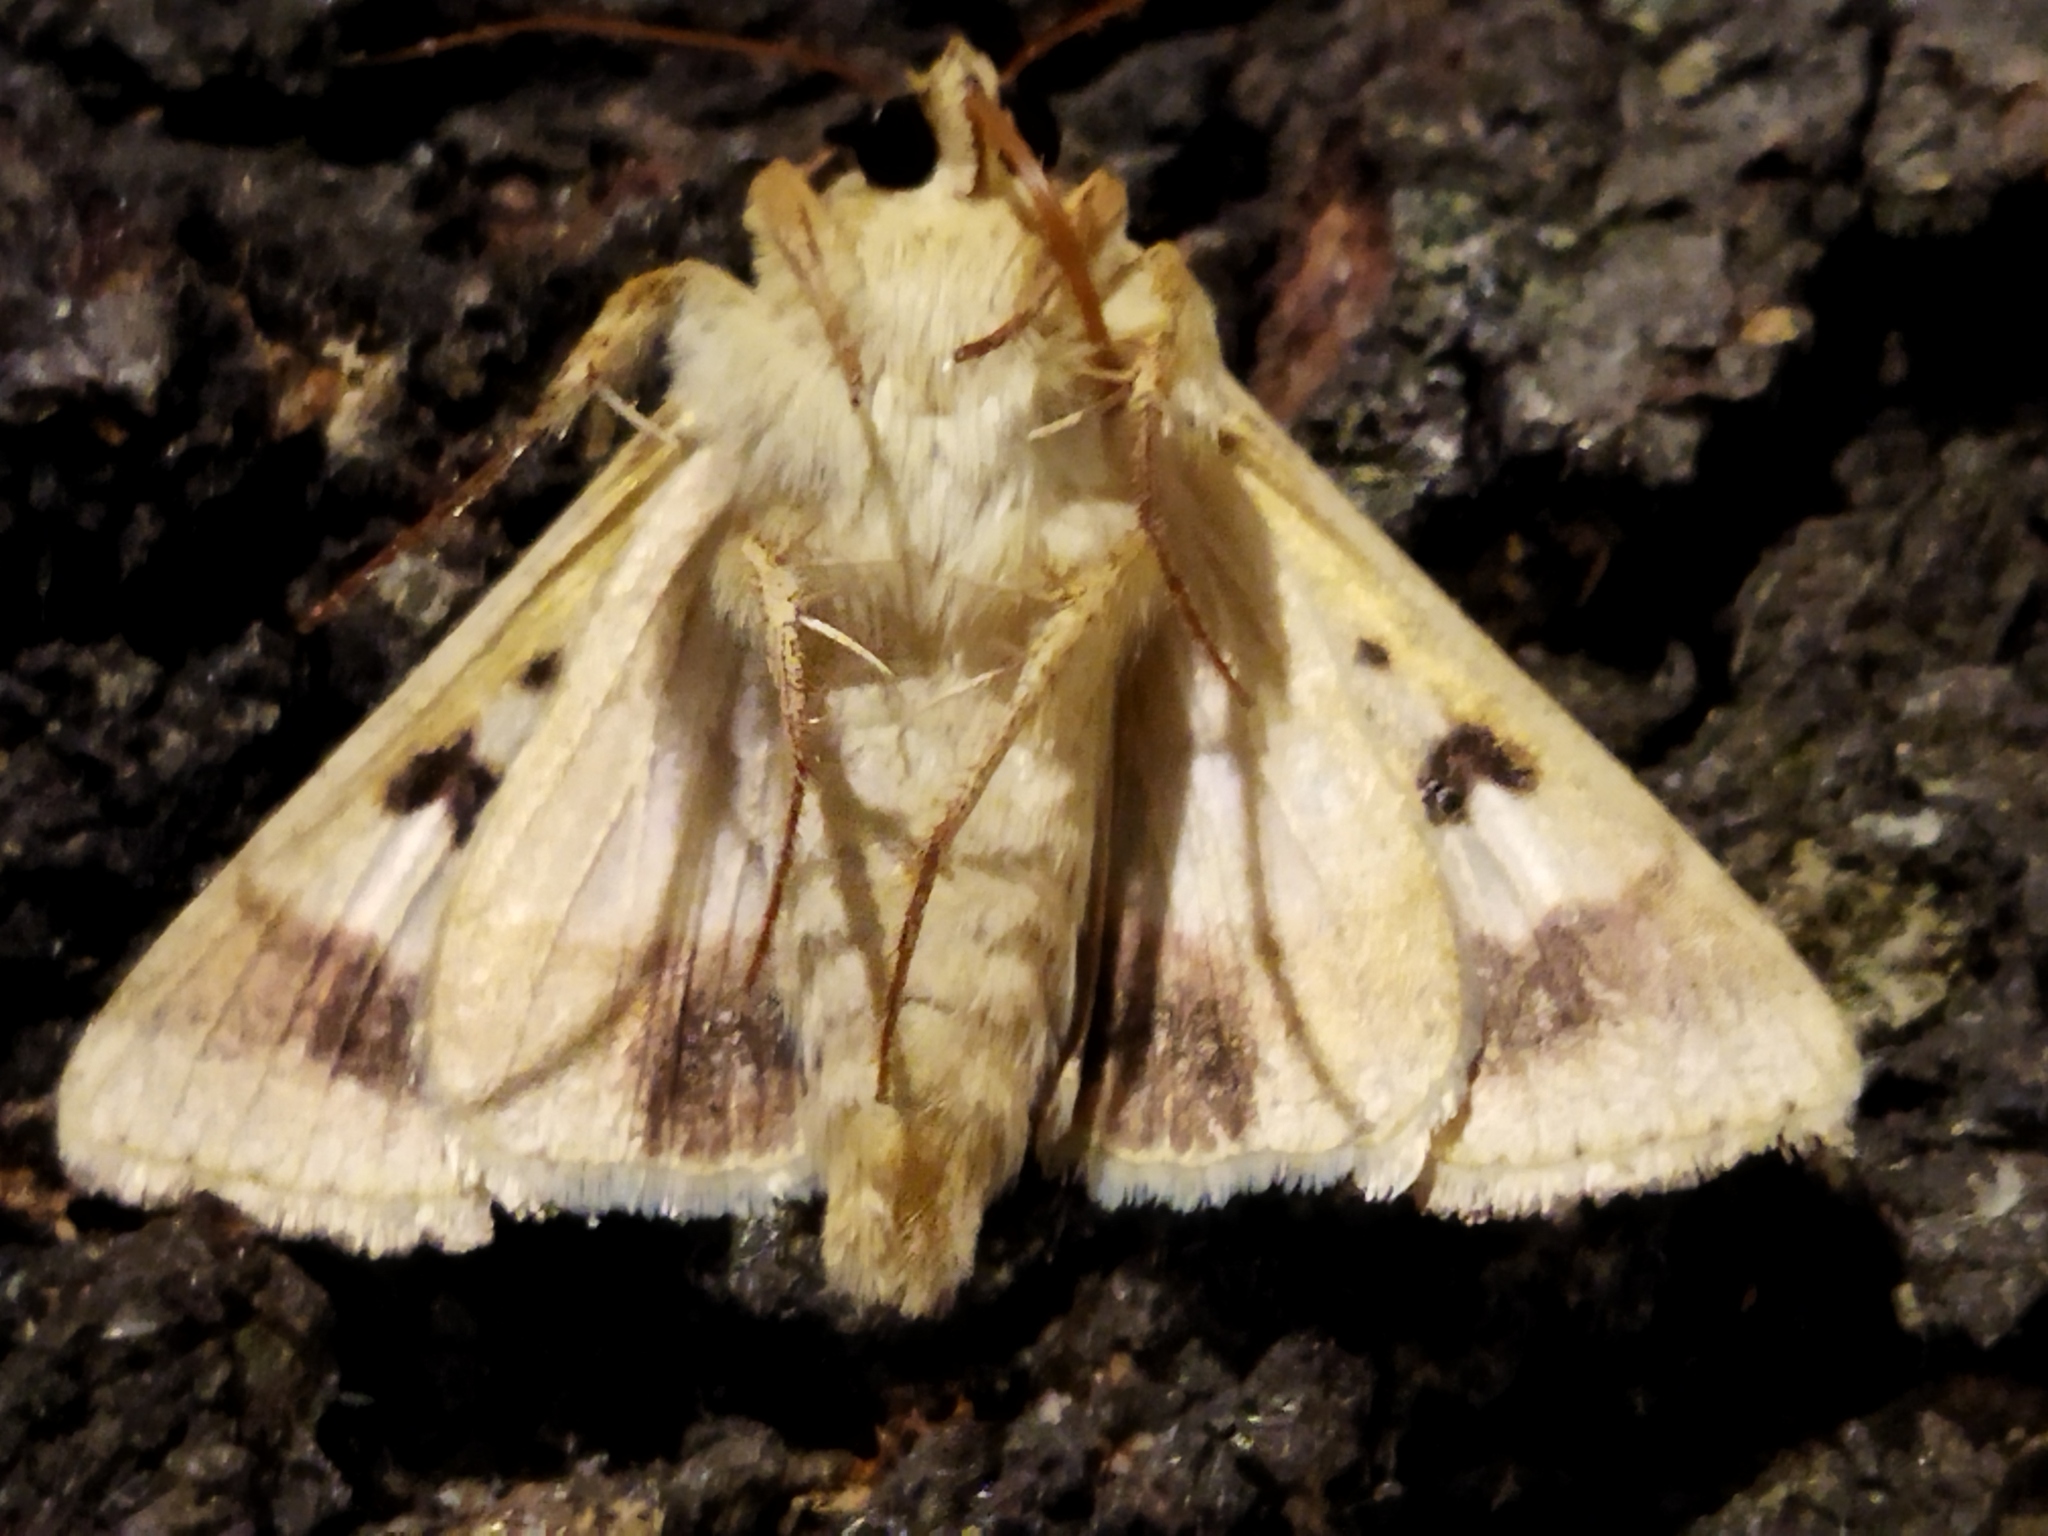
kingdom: Animalia
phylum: Arthropoda
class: Insecta
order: Lepidoptera
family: Noctuidae
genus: Helicoverpa
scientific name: Helicoverpa armigera
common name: Cotton bollworm
